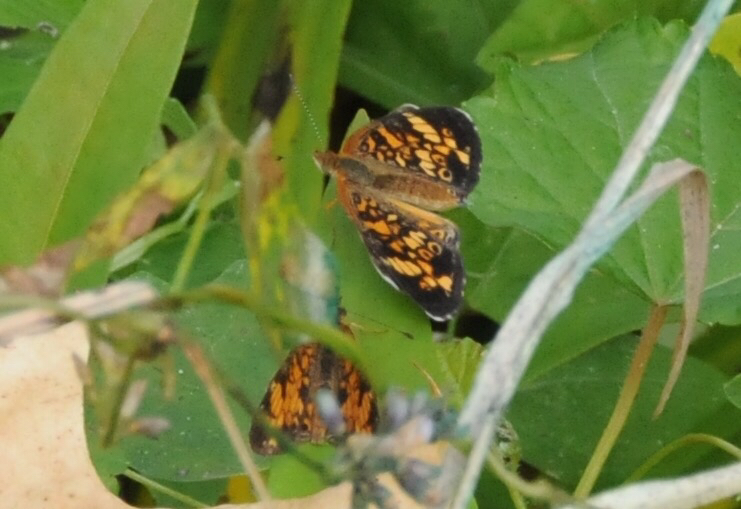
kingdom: Animalia
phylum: Arthropoda
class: Insecta
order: Lepidoptera
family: Nymphalidae
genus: Phyciodes
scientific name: Phyciodes tharos
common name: Pearl crescent
